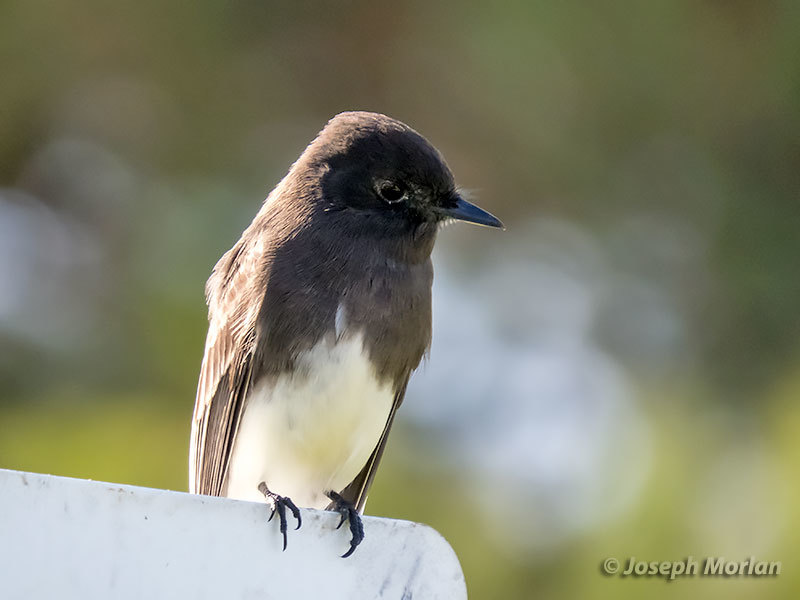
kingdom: Animalia
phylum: Chordata
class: Aves
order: Passeriformes
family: Tyrannidae
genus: Sayornis
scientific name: Sayornis nigricans
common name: Black phoebe
